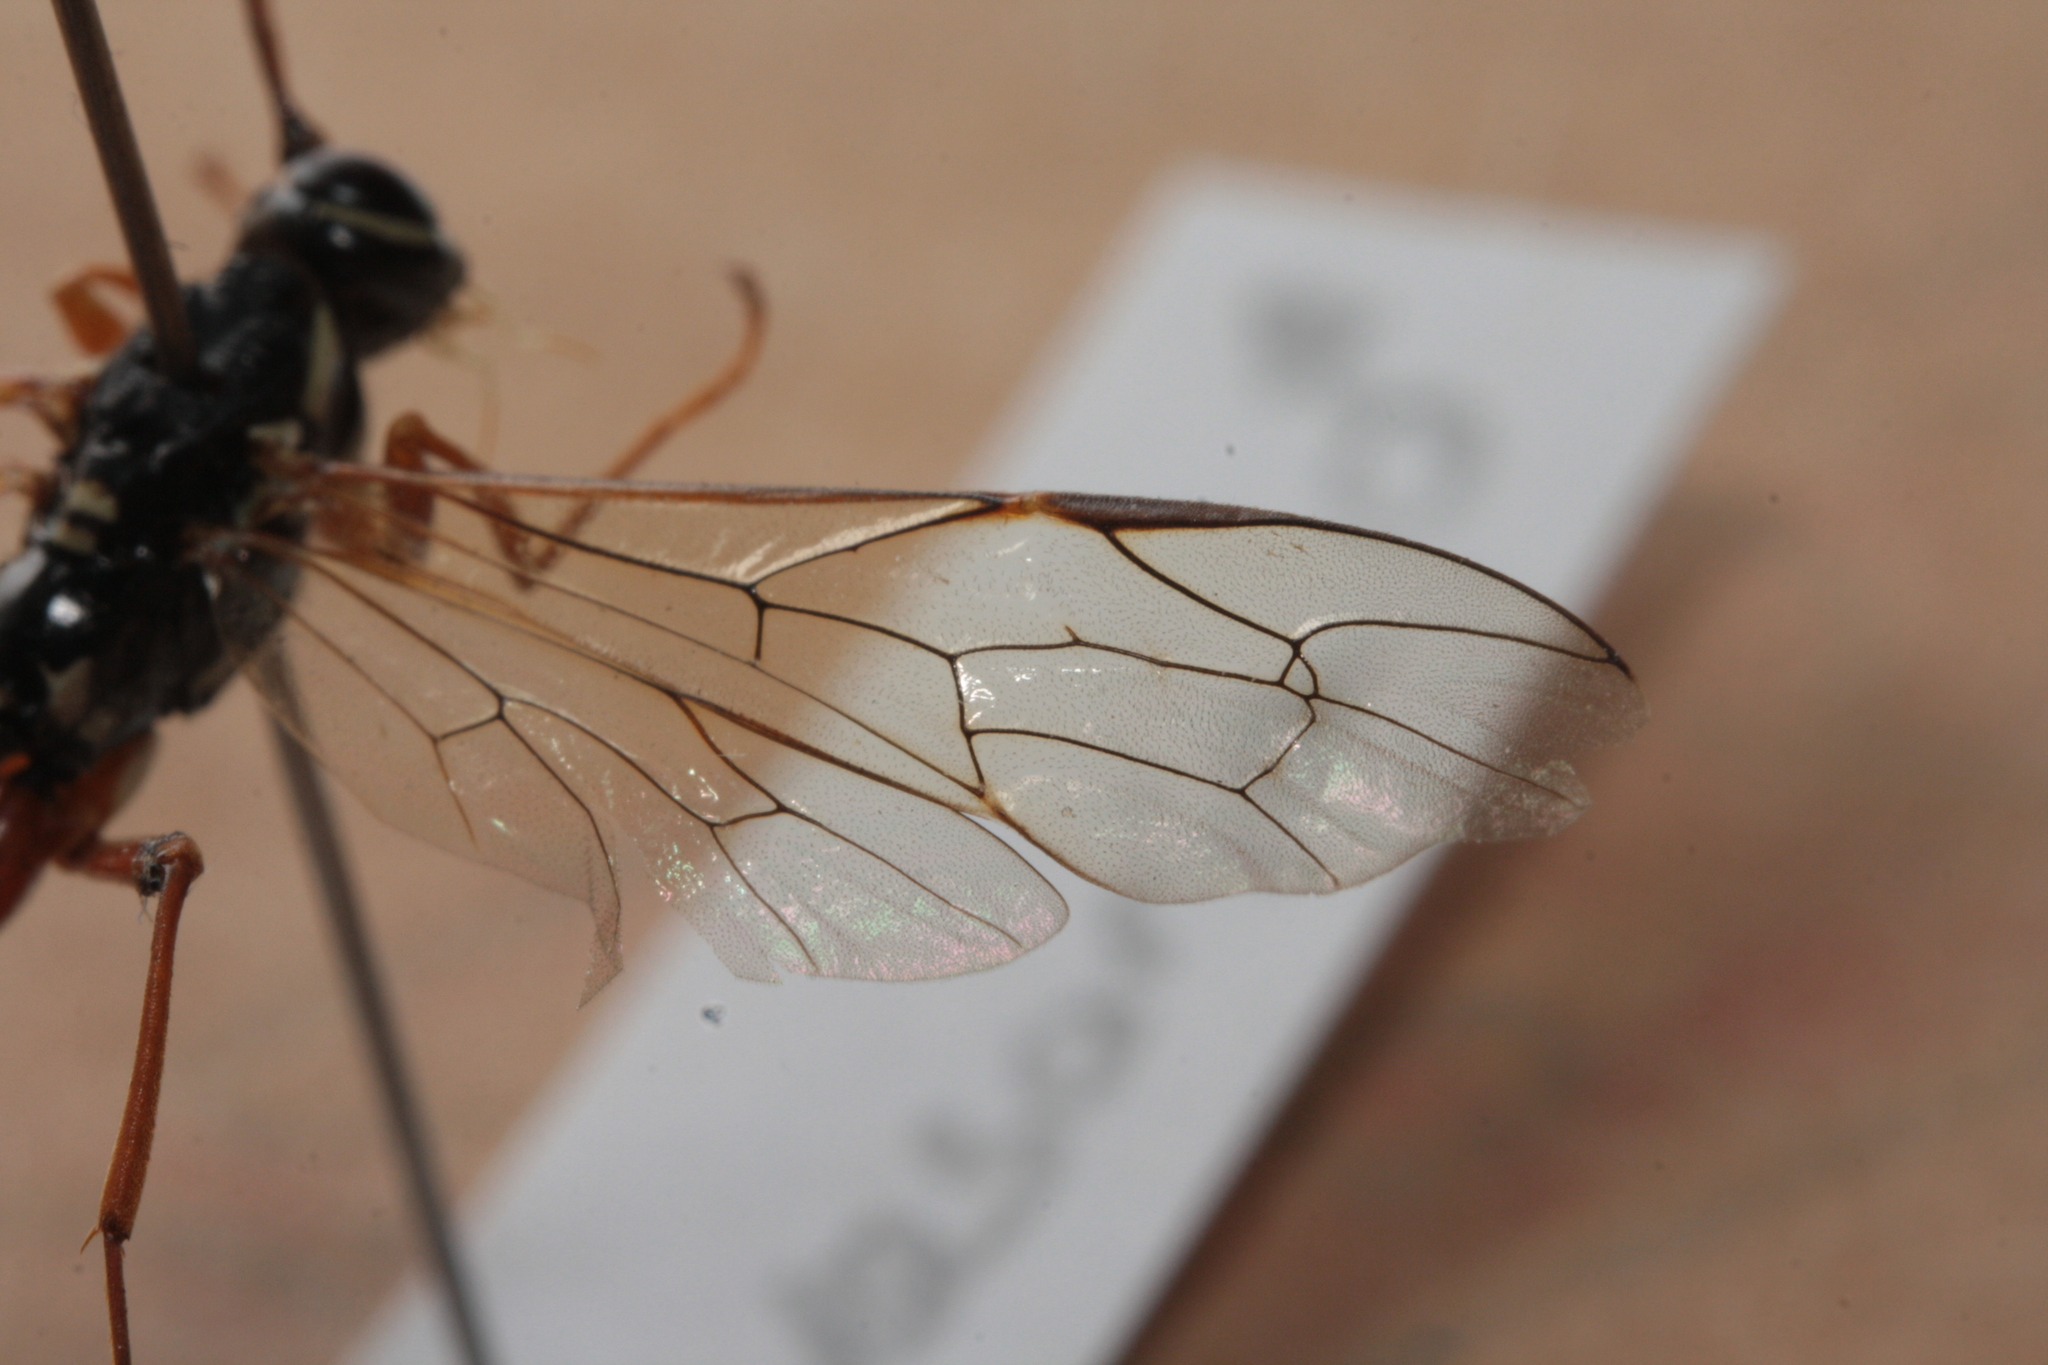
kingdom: Animalia
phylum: Arthropoda
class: Insecta
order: Hymenoptera
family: Ichneumonidae
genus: Rhyssa
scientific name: Rhyssa persuasoria
